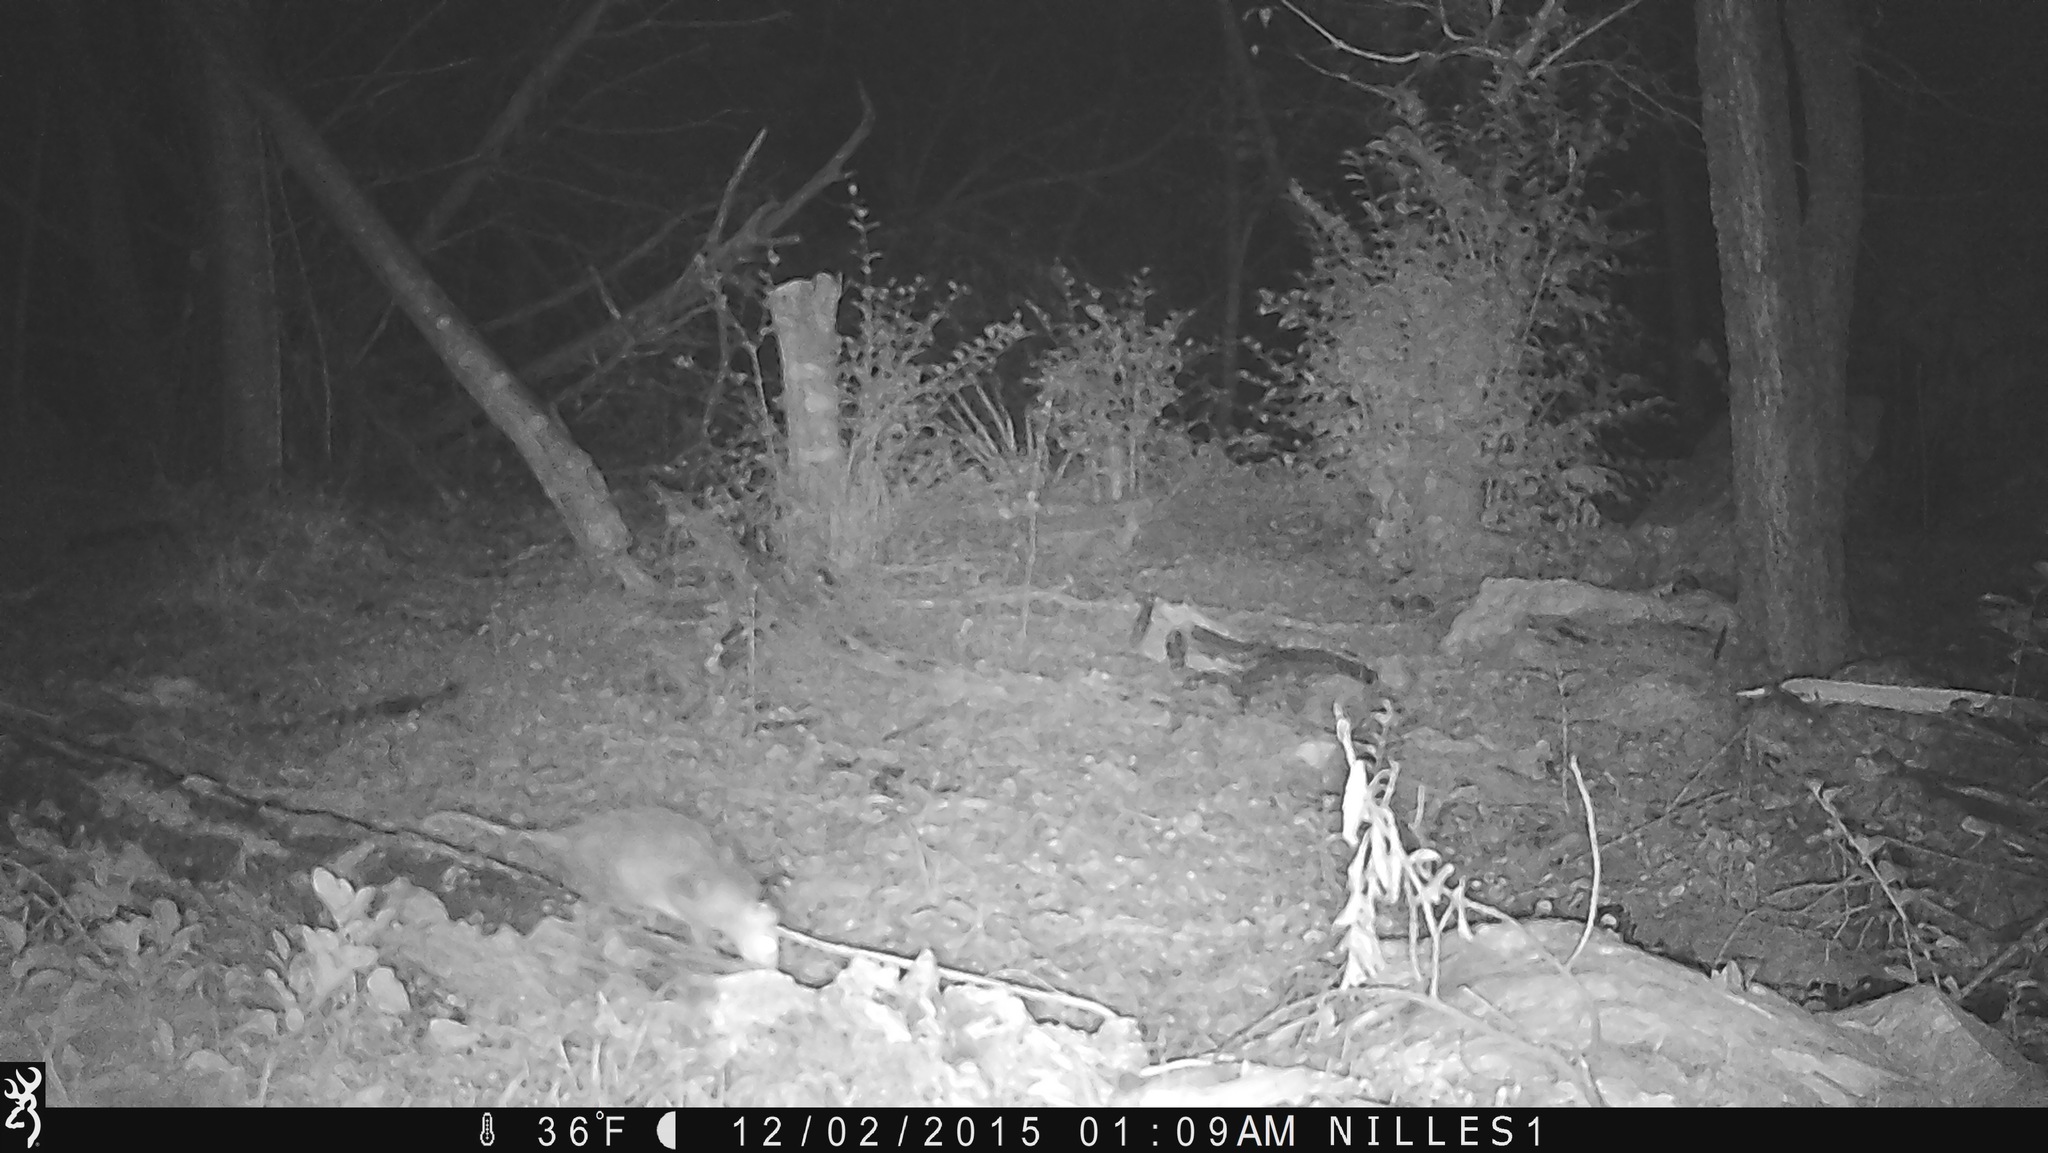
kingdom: Animalia
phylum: Chordata
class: Mammalia
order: Didelphimorphia
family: Didelphidae
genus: Didelphis
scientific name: Didelphis virginiana
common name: Virginia opossum
